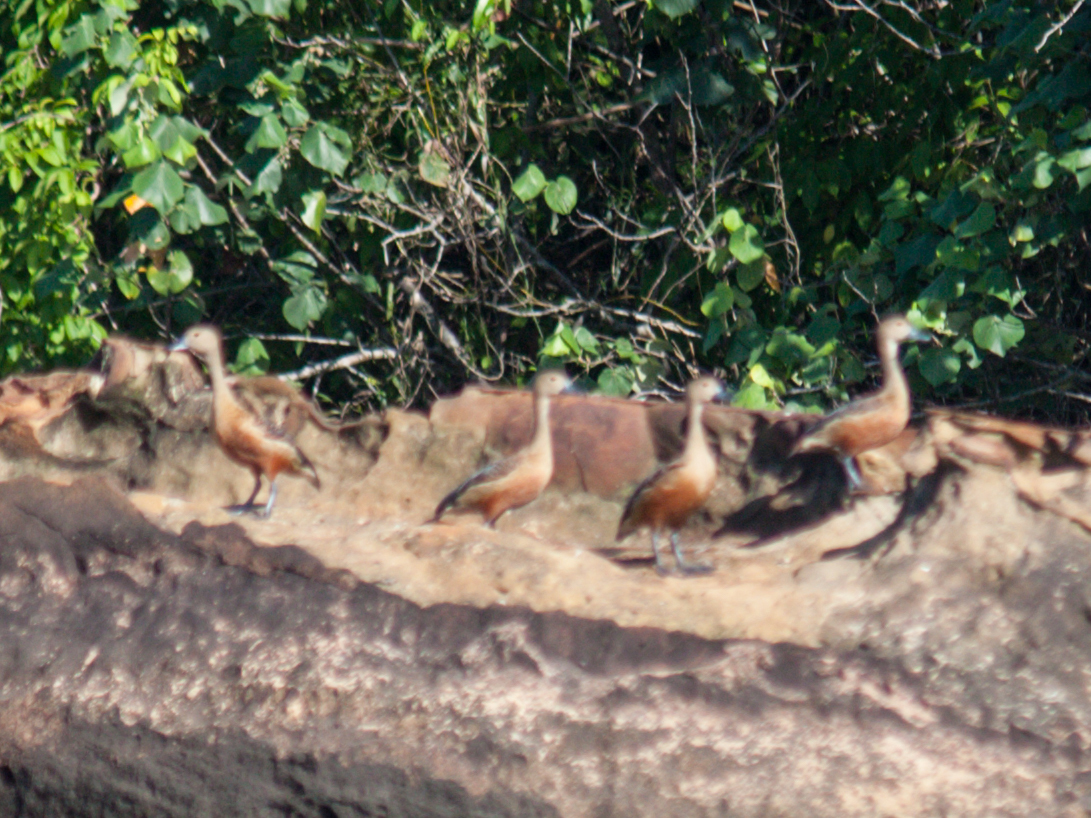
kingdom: Animalia
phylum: Chordata
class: Aves
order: Anseriformes
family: Anatidae
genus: Dendrocygna
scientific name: Dendrocygna javanica
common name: Lesser whistling-duck
